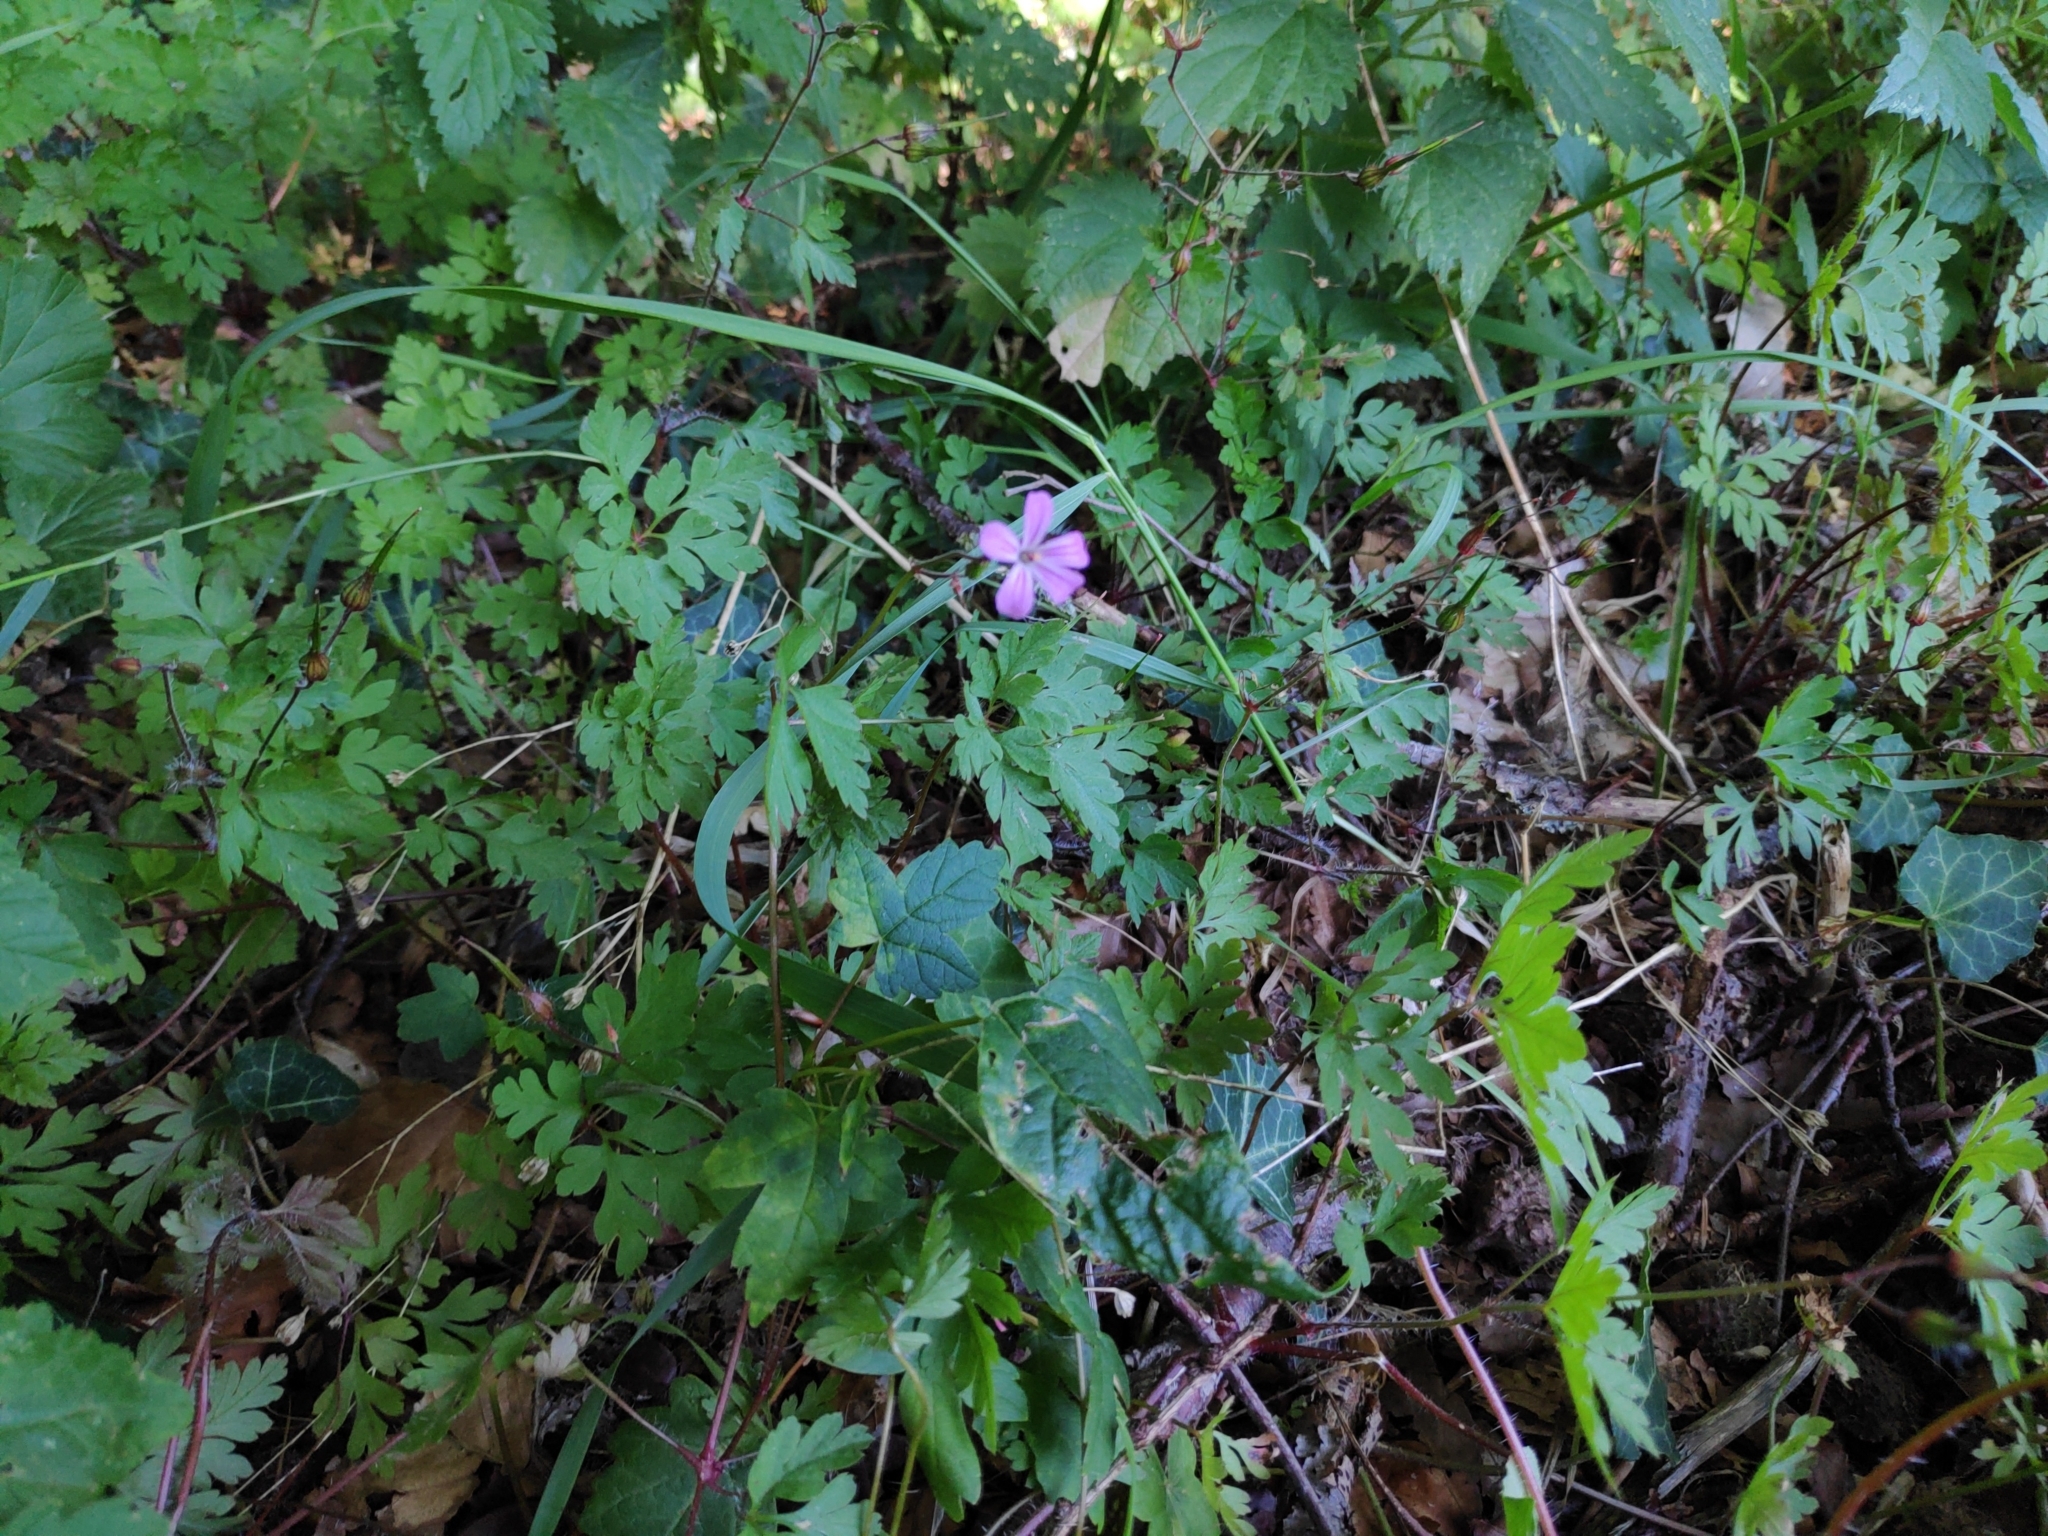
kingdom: Plantae
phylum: Tracheophyta
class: Magnoliopsida
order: Geraniales
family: Geraniaceae
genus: Geranium
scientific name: Geranium robertianum
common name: Herb-robert
